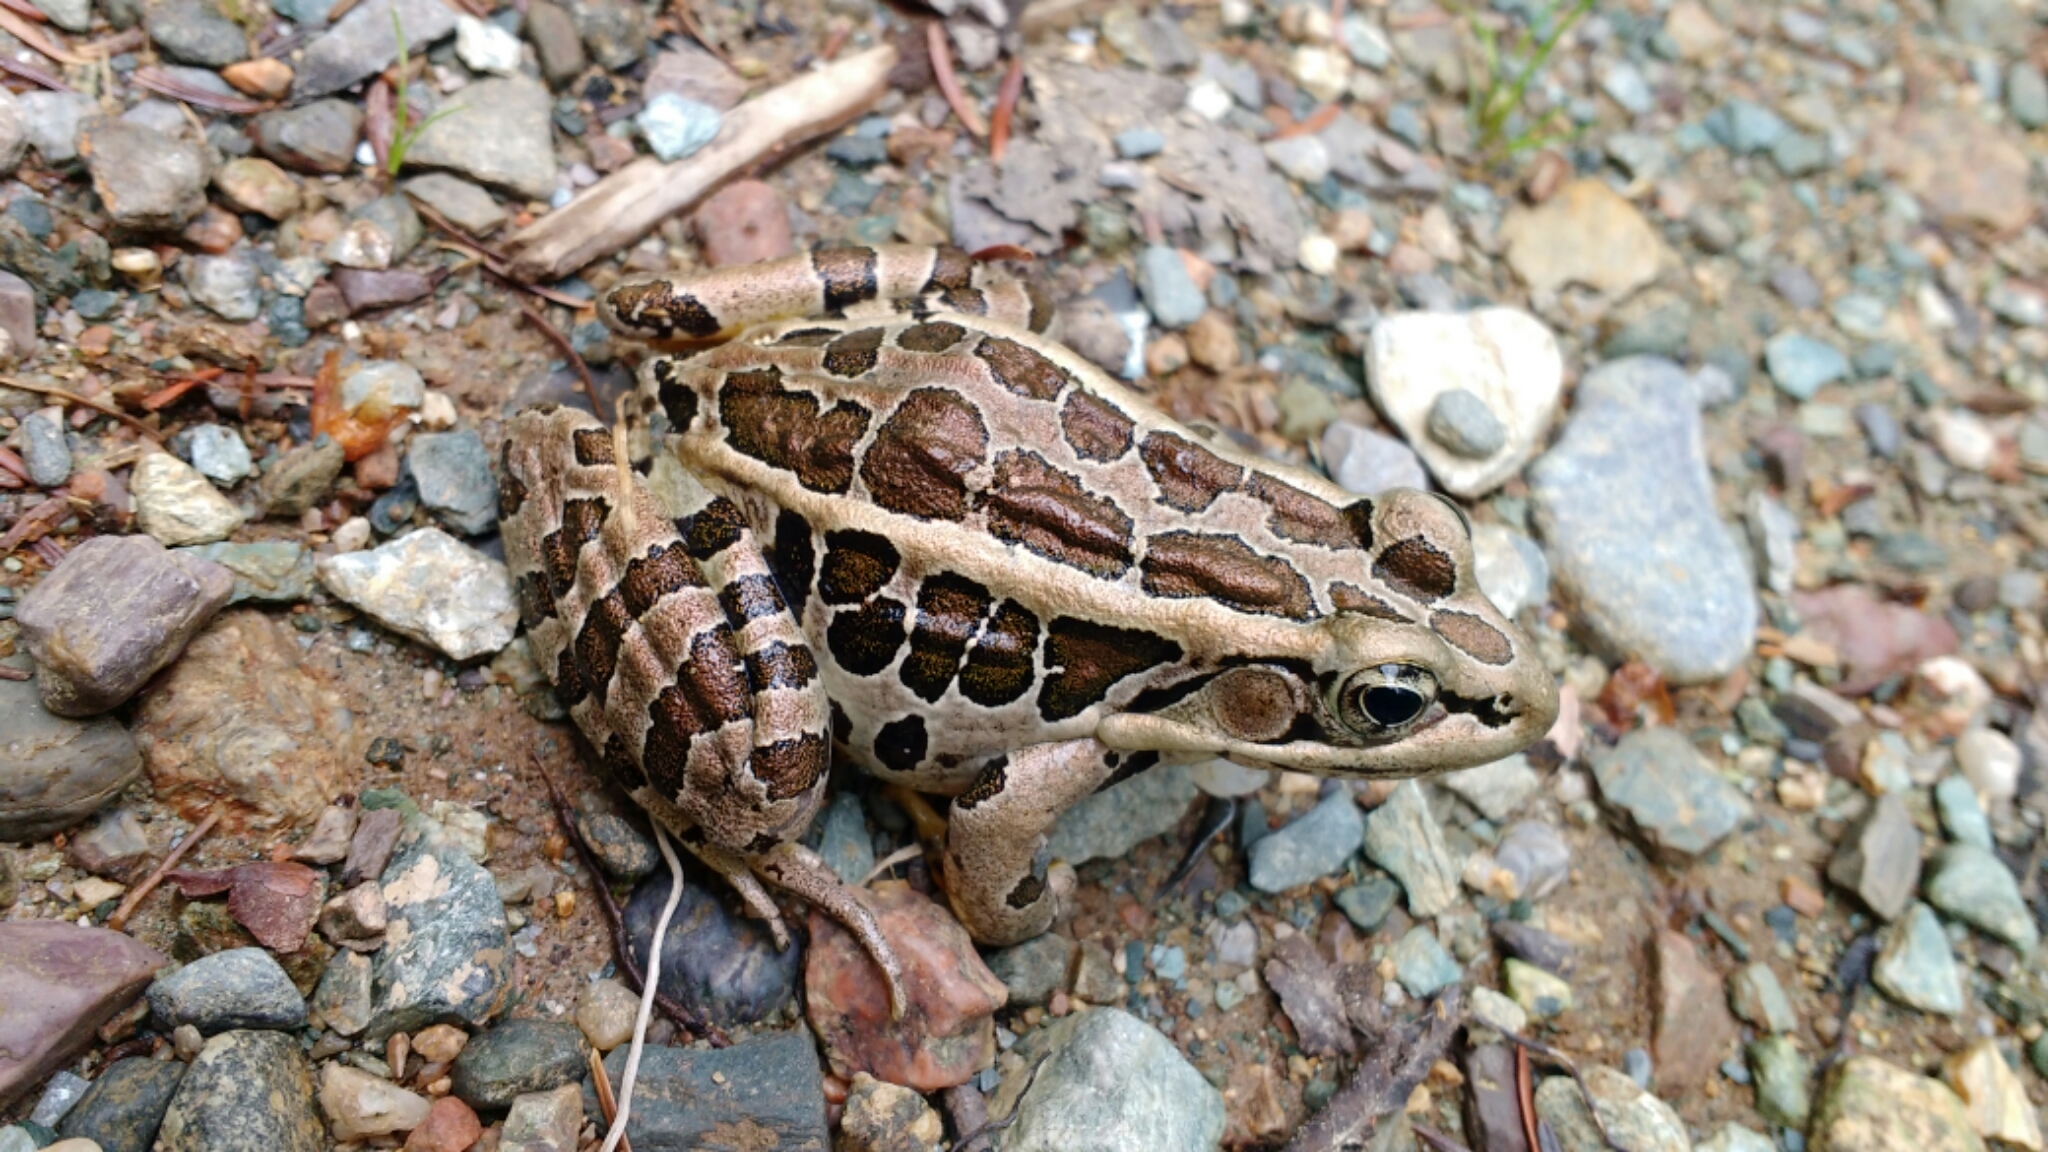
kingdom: Animalia
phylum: Chordata
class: Amphibia
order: Anura
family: Ranidae
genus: Lithobates
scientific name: Lithobates palustris
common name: Pickerel frog
